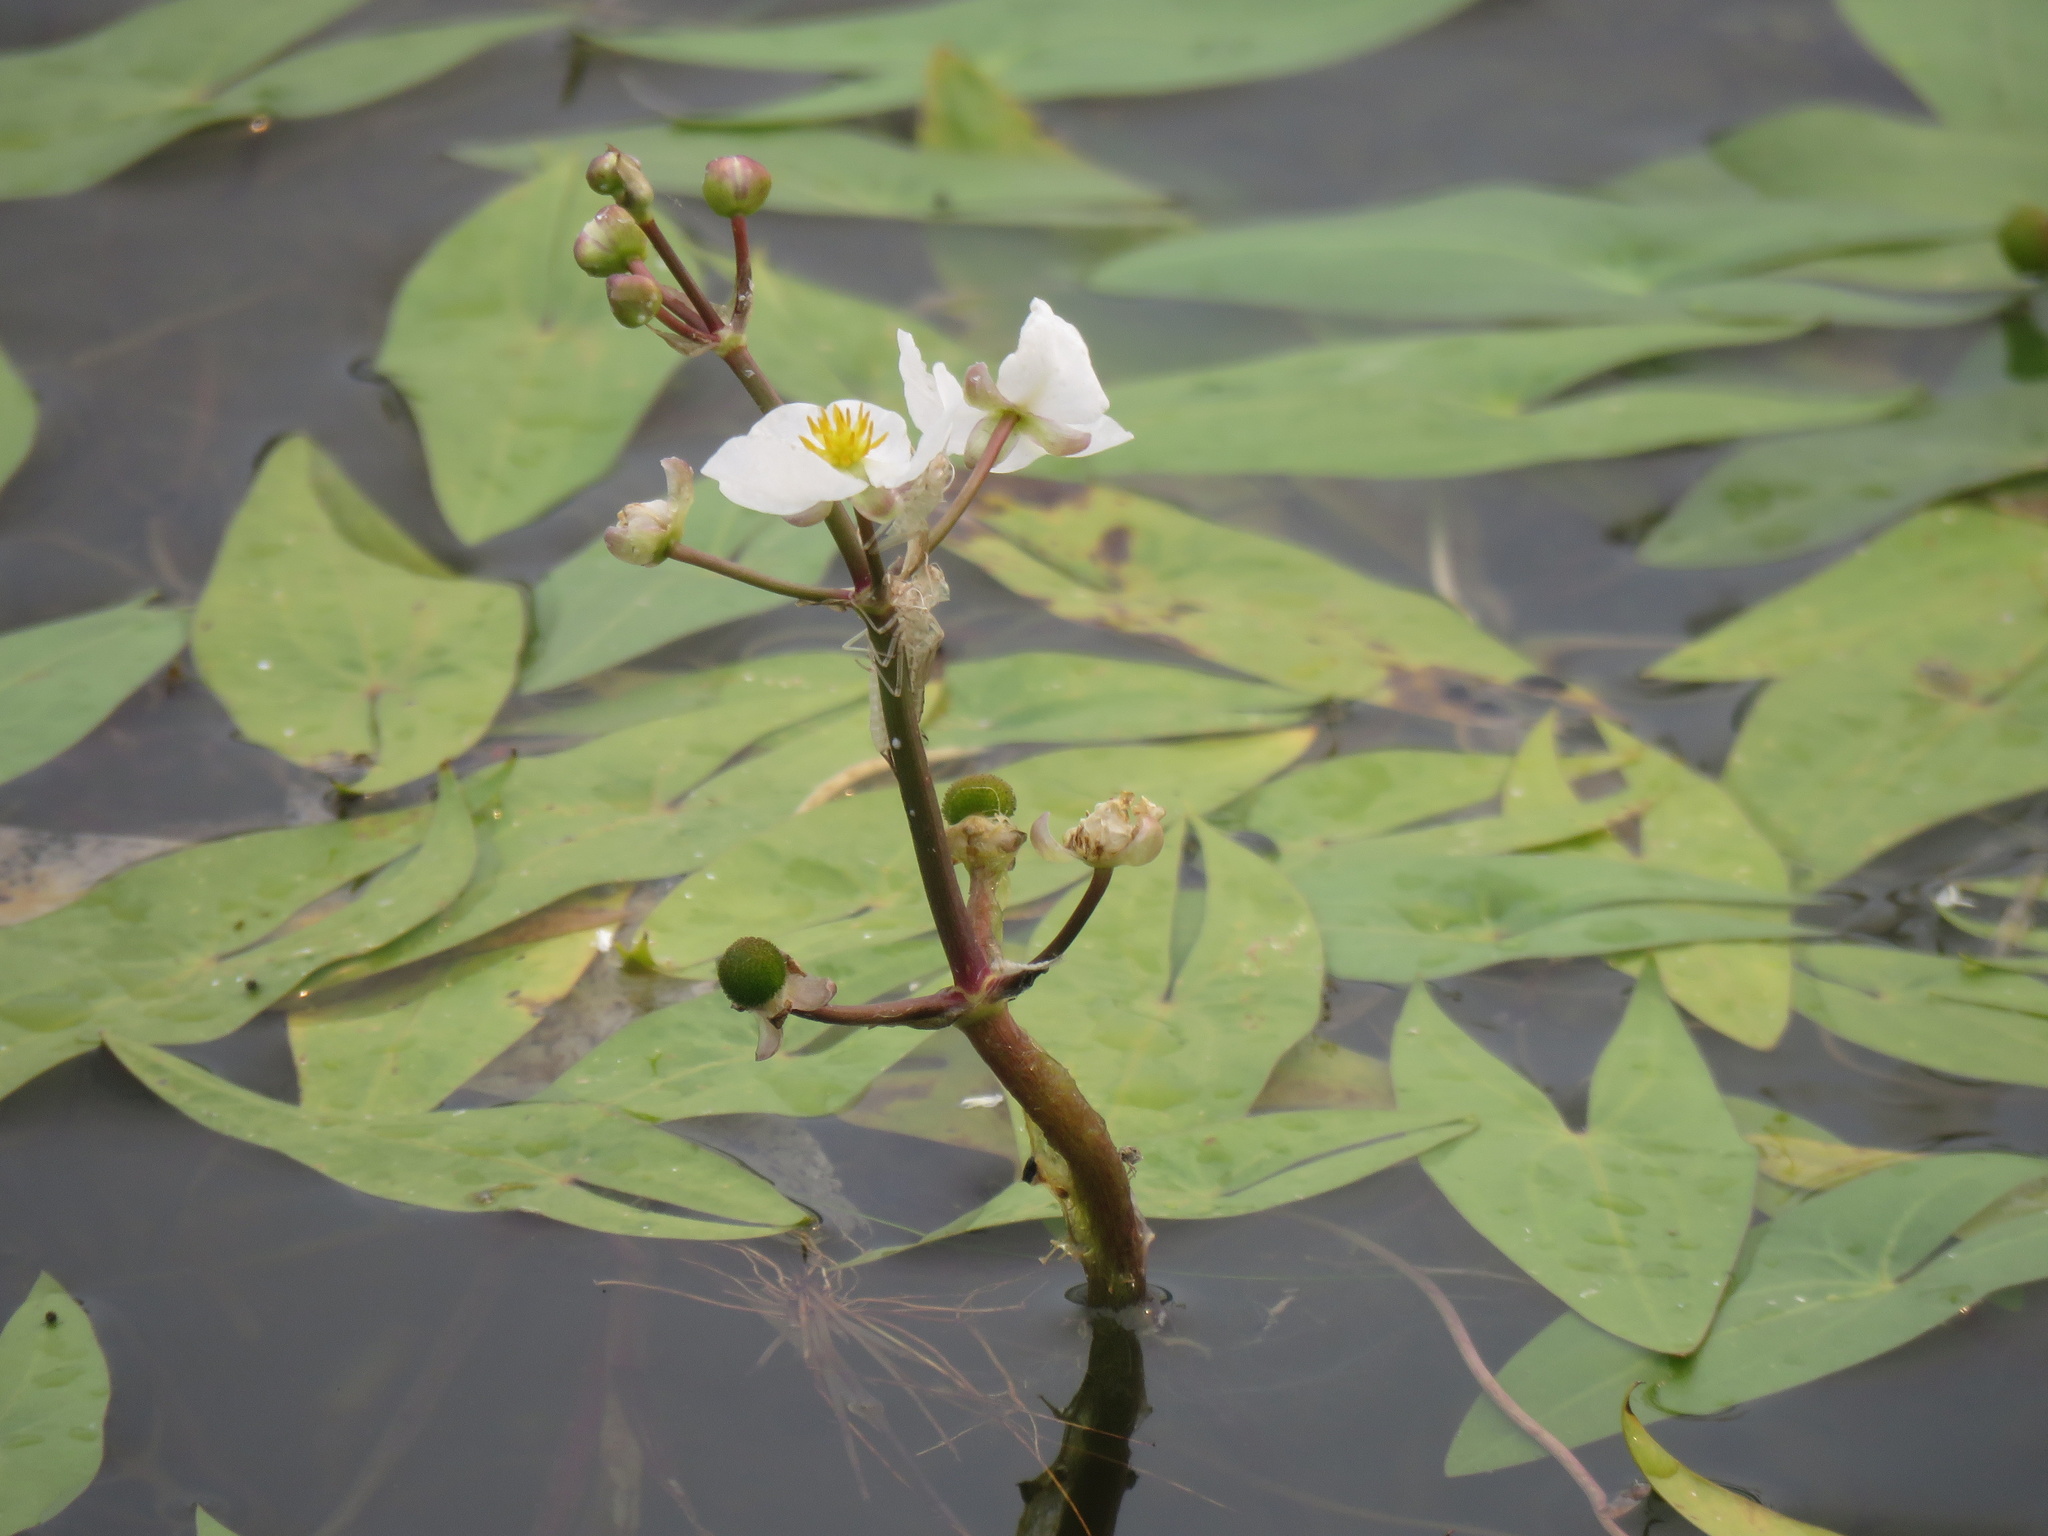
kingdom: Plantae
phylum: Tracheophyta
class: Liliopsida
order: Alismatales
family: Alismataceae
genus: Sagittaria
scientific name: Sagittaria cuneata
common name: Northern arrowhead
